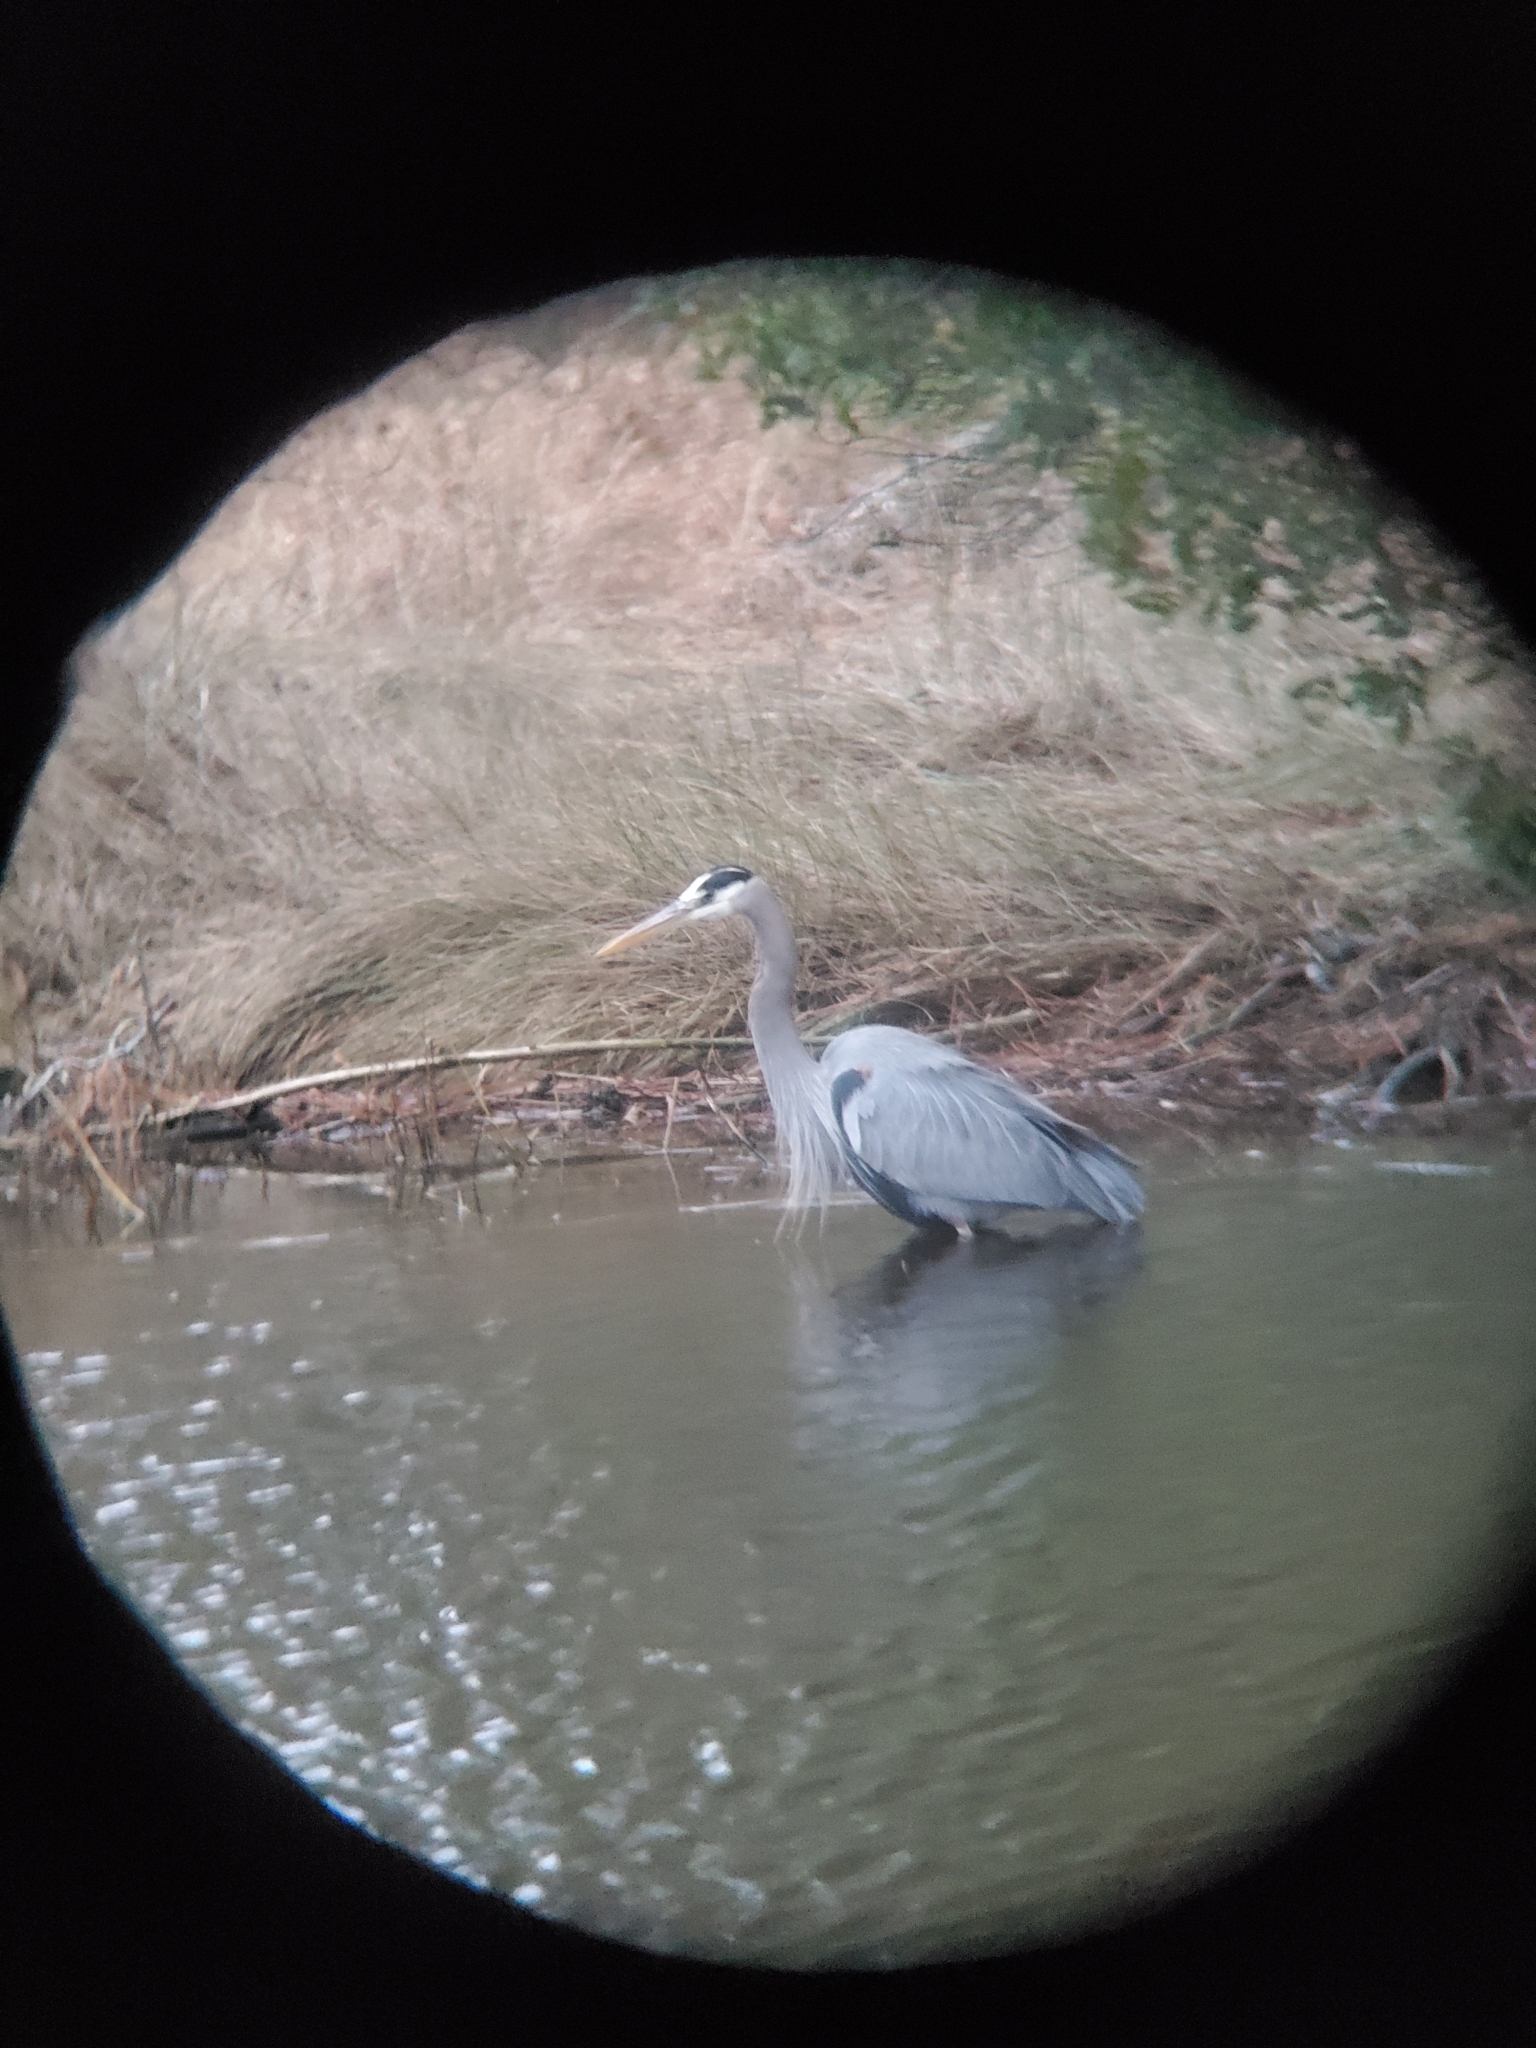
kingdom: Animalia
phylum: Chordata
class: Aves
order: Pelecaniformes
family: Ardeidae
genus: Ardea
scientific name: Ardea herodias
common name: Great blue heron
